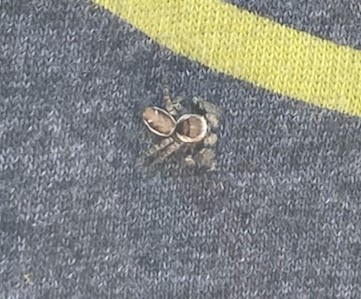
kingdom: Animalia
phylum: Arthropoda
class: Arachnida
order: Araneae
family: Salticidae
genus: Evarcha
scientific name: Evarcha proszynskii
